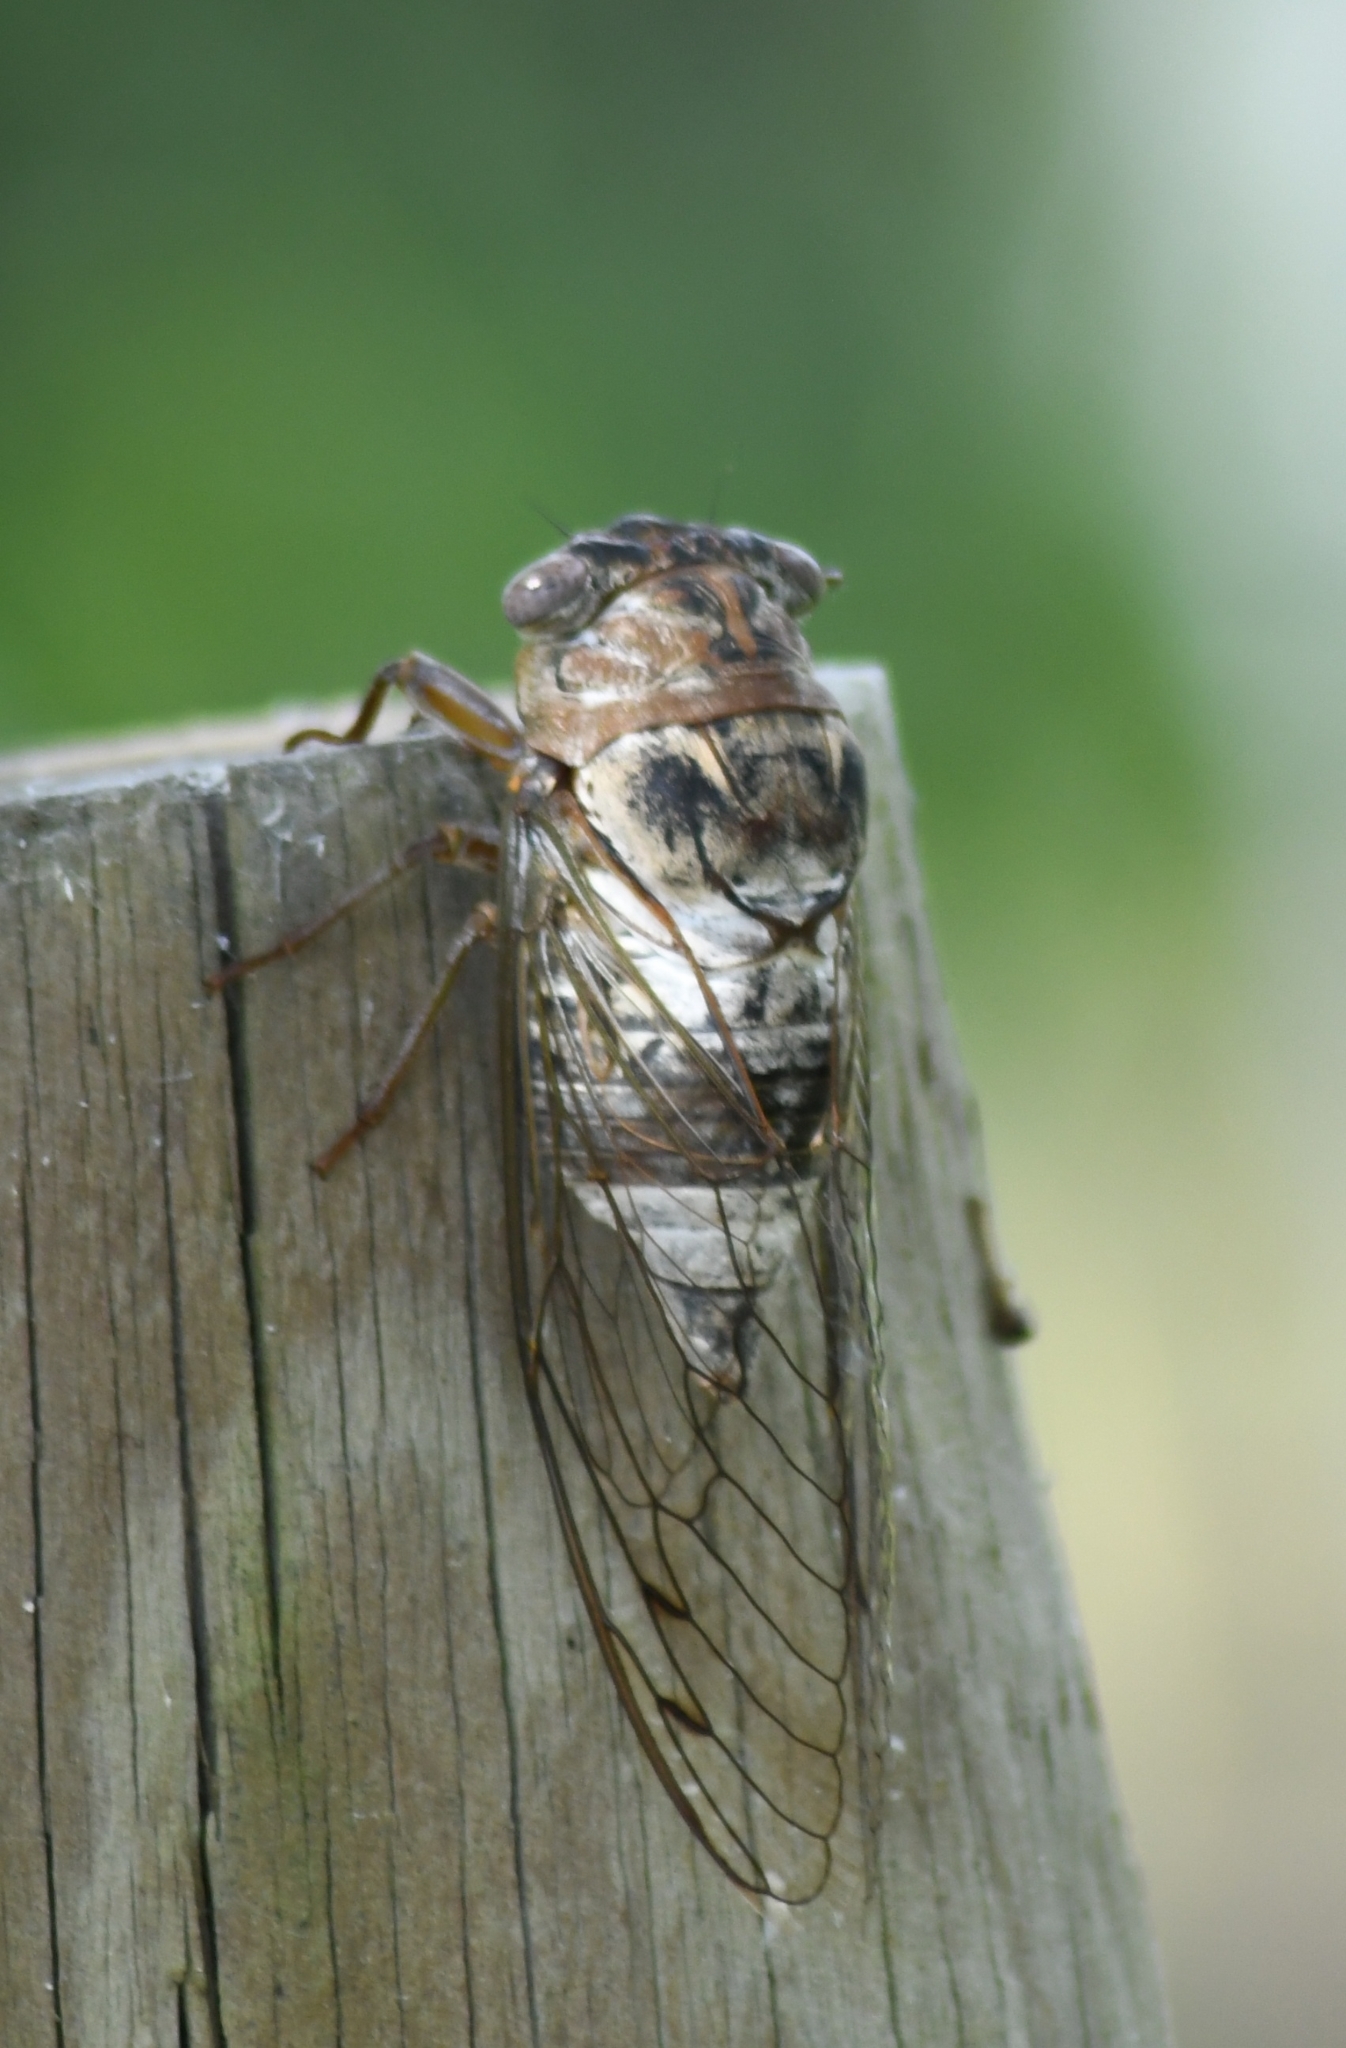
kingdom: Animalia
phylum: Arthropoda
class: Insecta
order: Hemiptera
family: Cicadidae
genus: Diceroprocta
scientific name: Diceroprocta grossa
